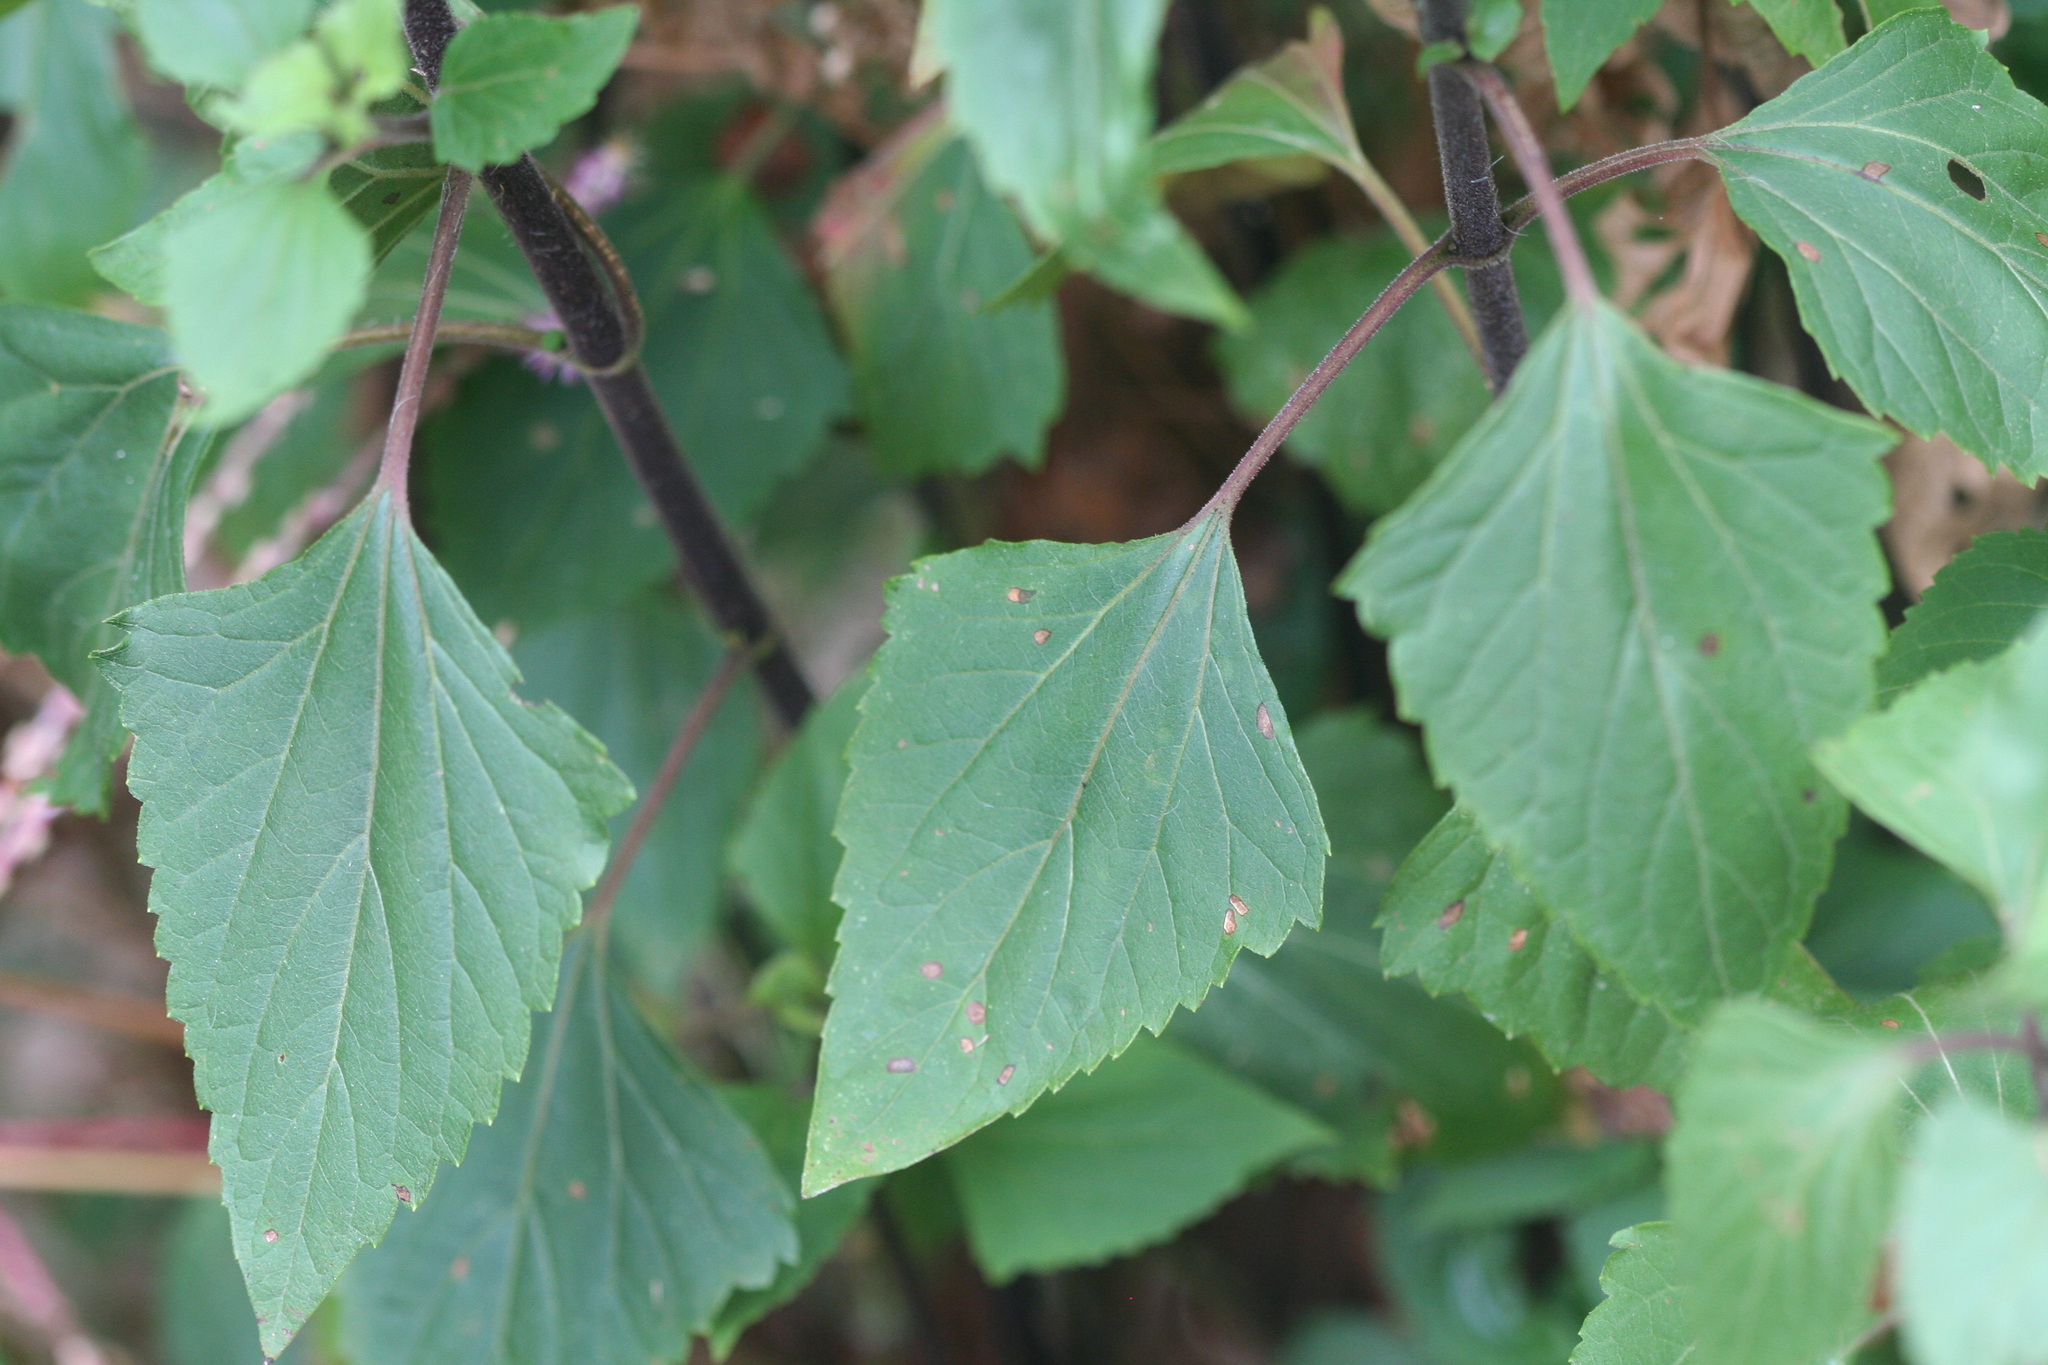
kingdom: Plantae
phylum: Tracheophyta
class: Magnoliopsida
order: Asterales
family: Asteraceae
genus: Ageratina
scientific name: Ageratina adenophora
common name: Sticky snakeroot
